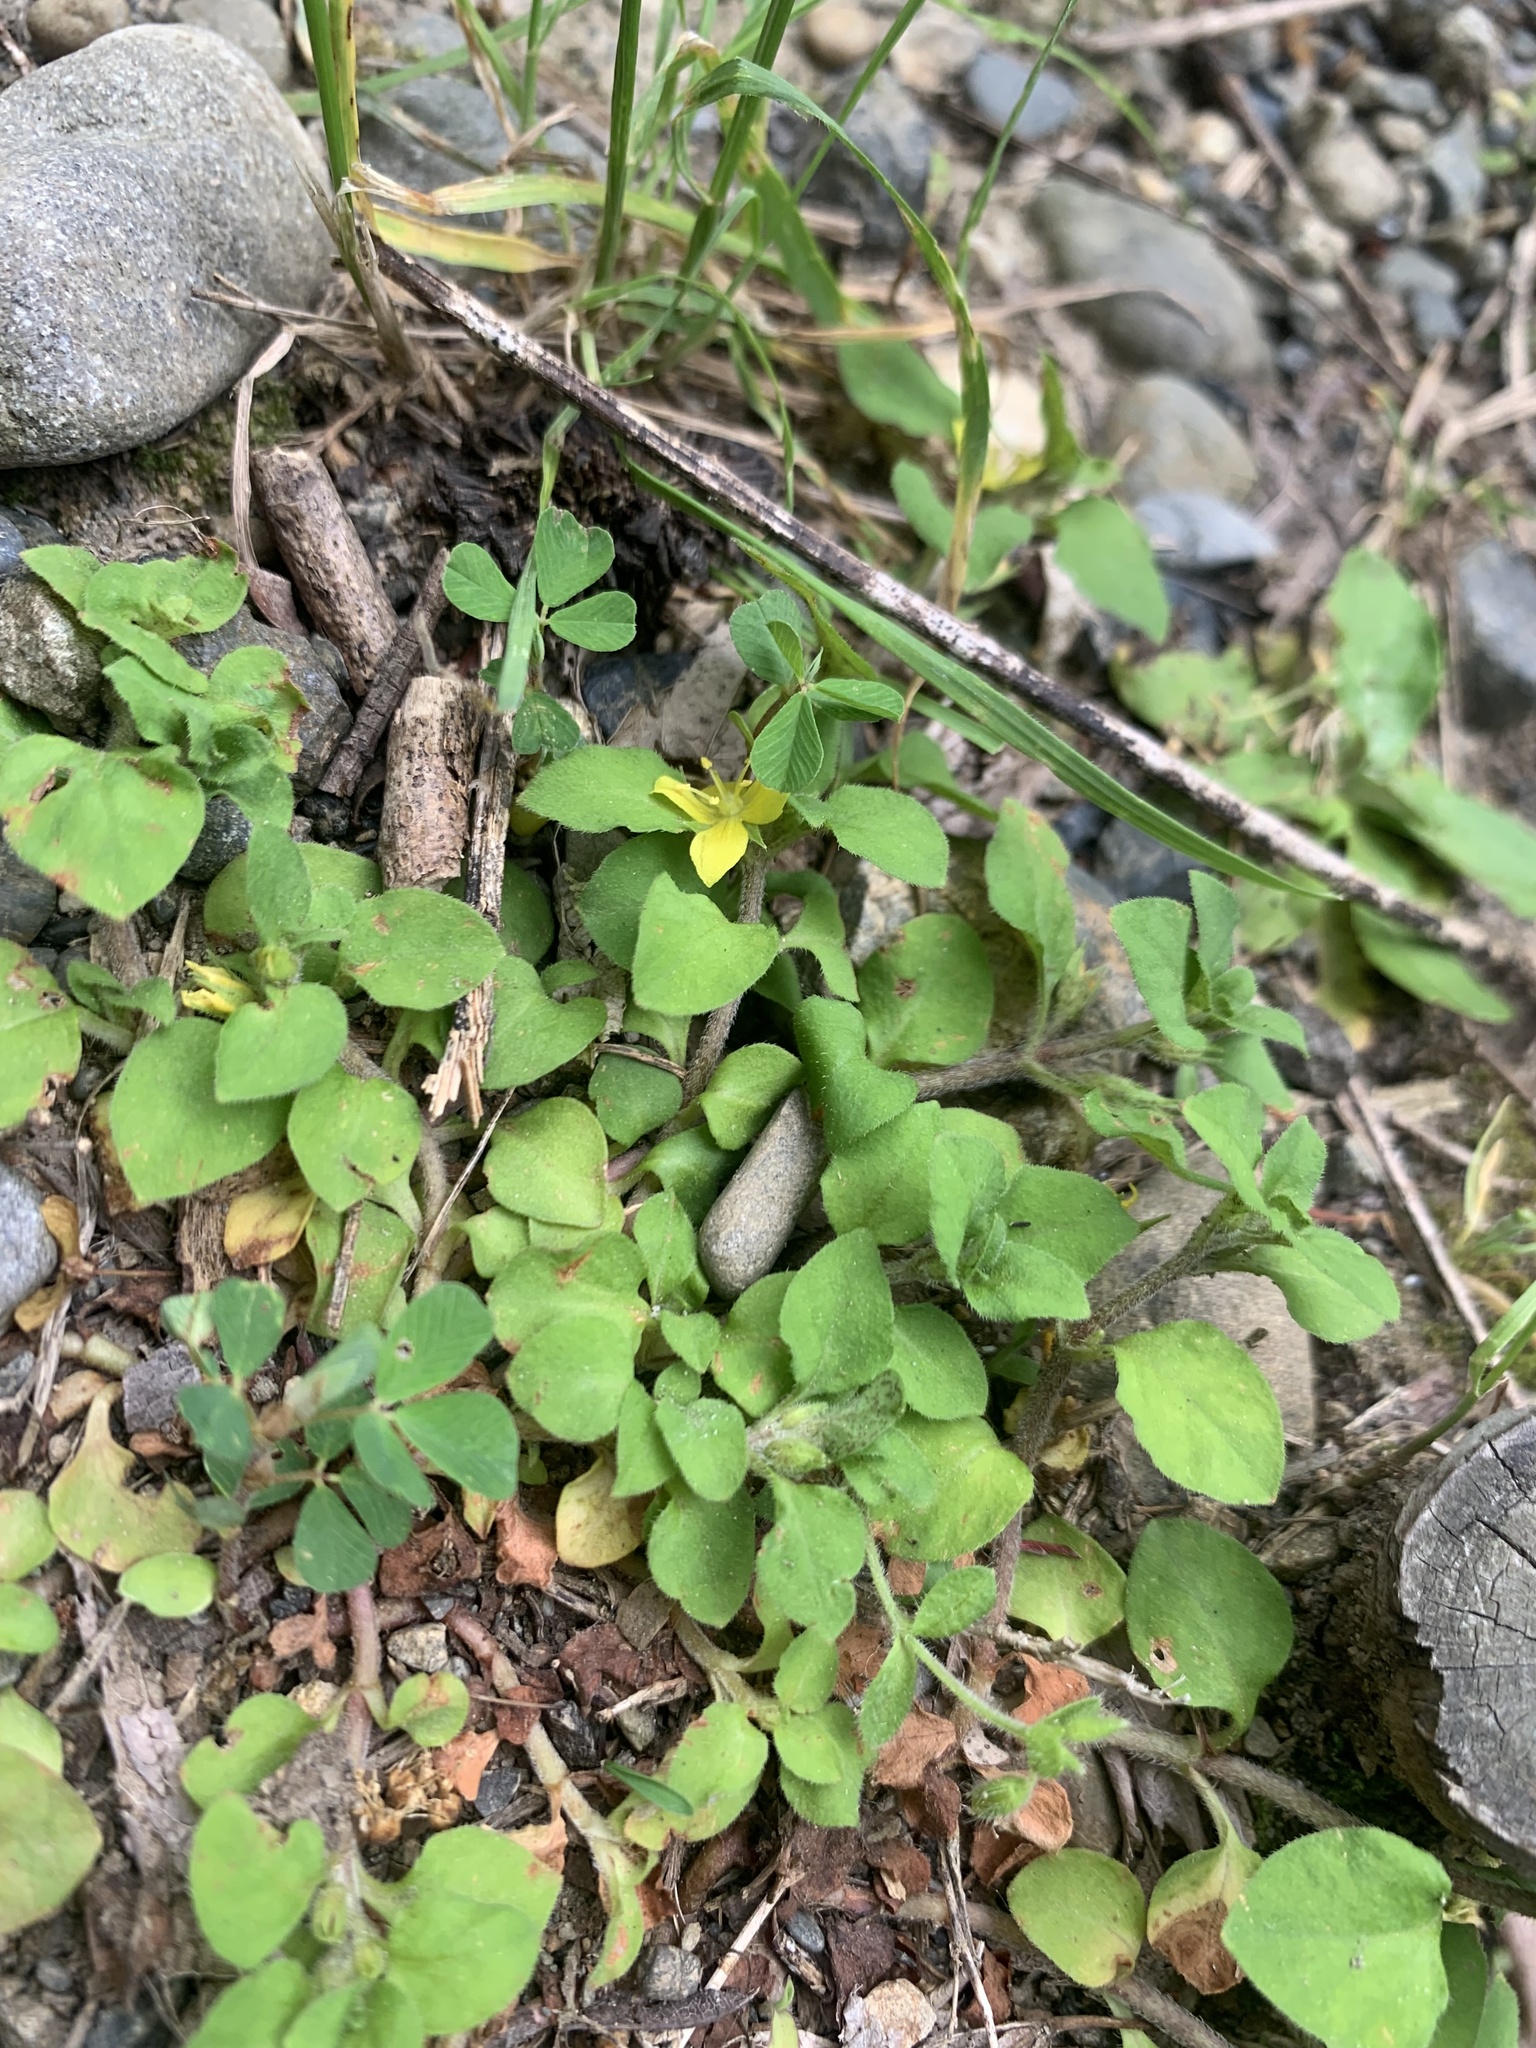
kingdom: Plantae
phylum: Tracheophyta
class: Magnoliopsida
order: Ericales
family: Primulaceae
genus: Lysimachia
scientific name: Lysimachia japonica
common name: Japanese yellow loosestrife
